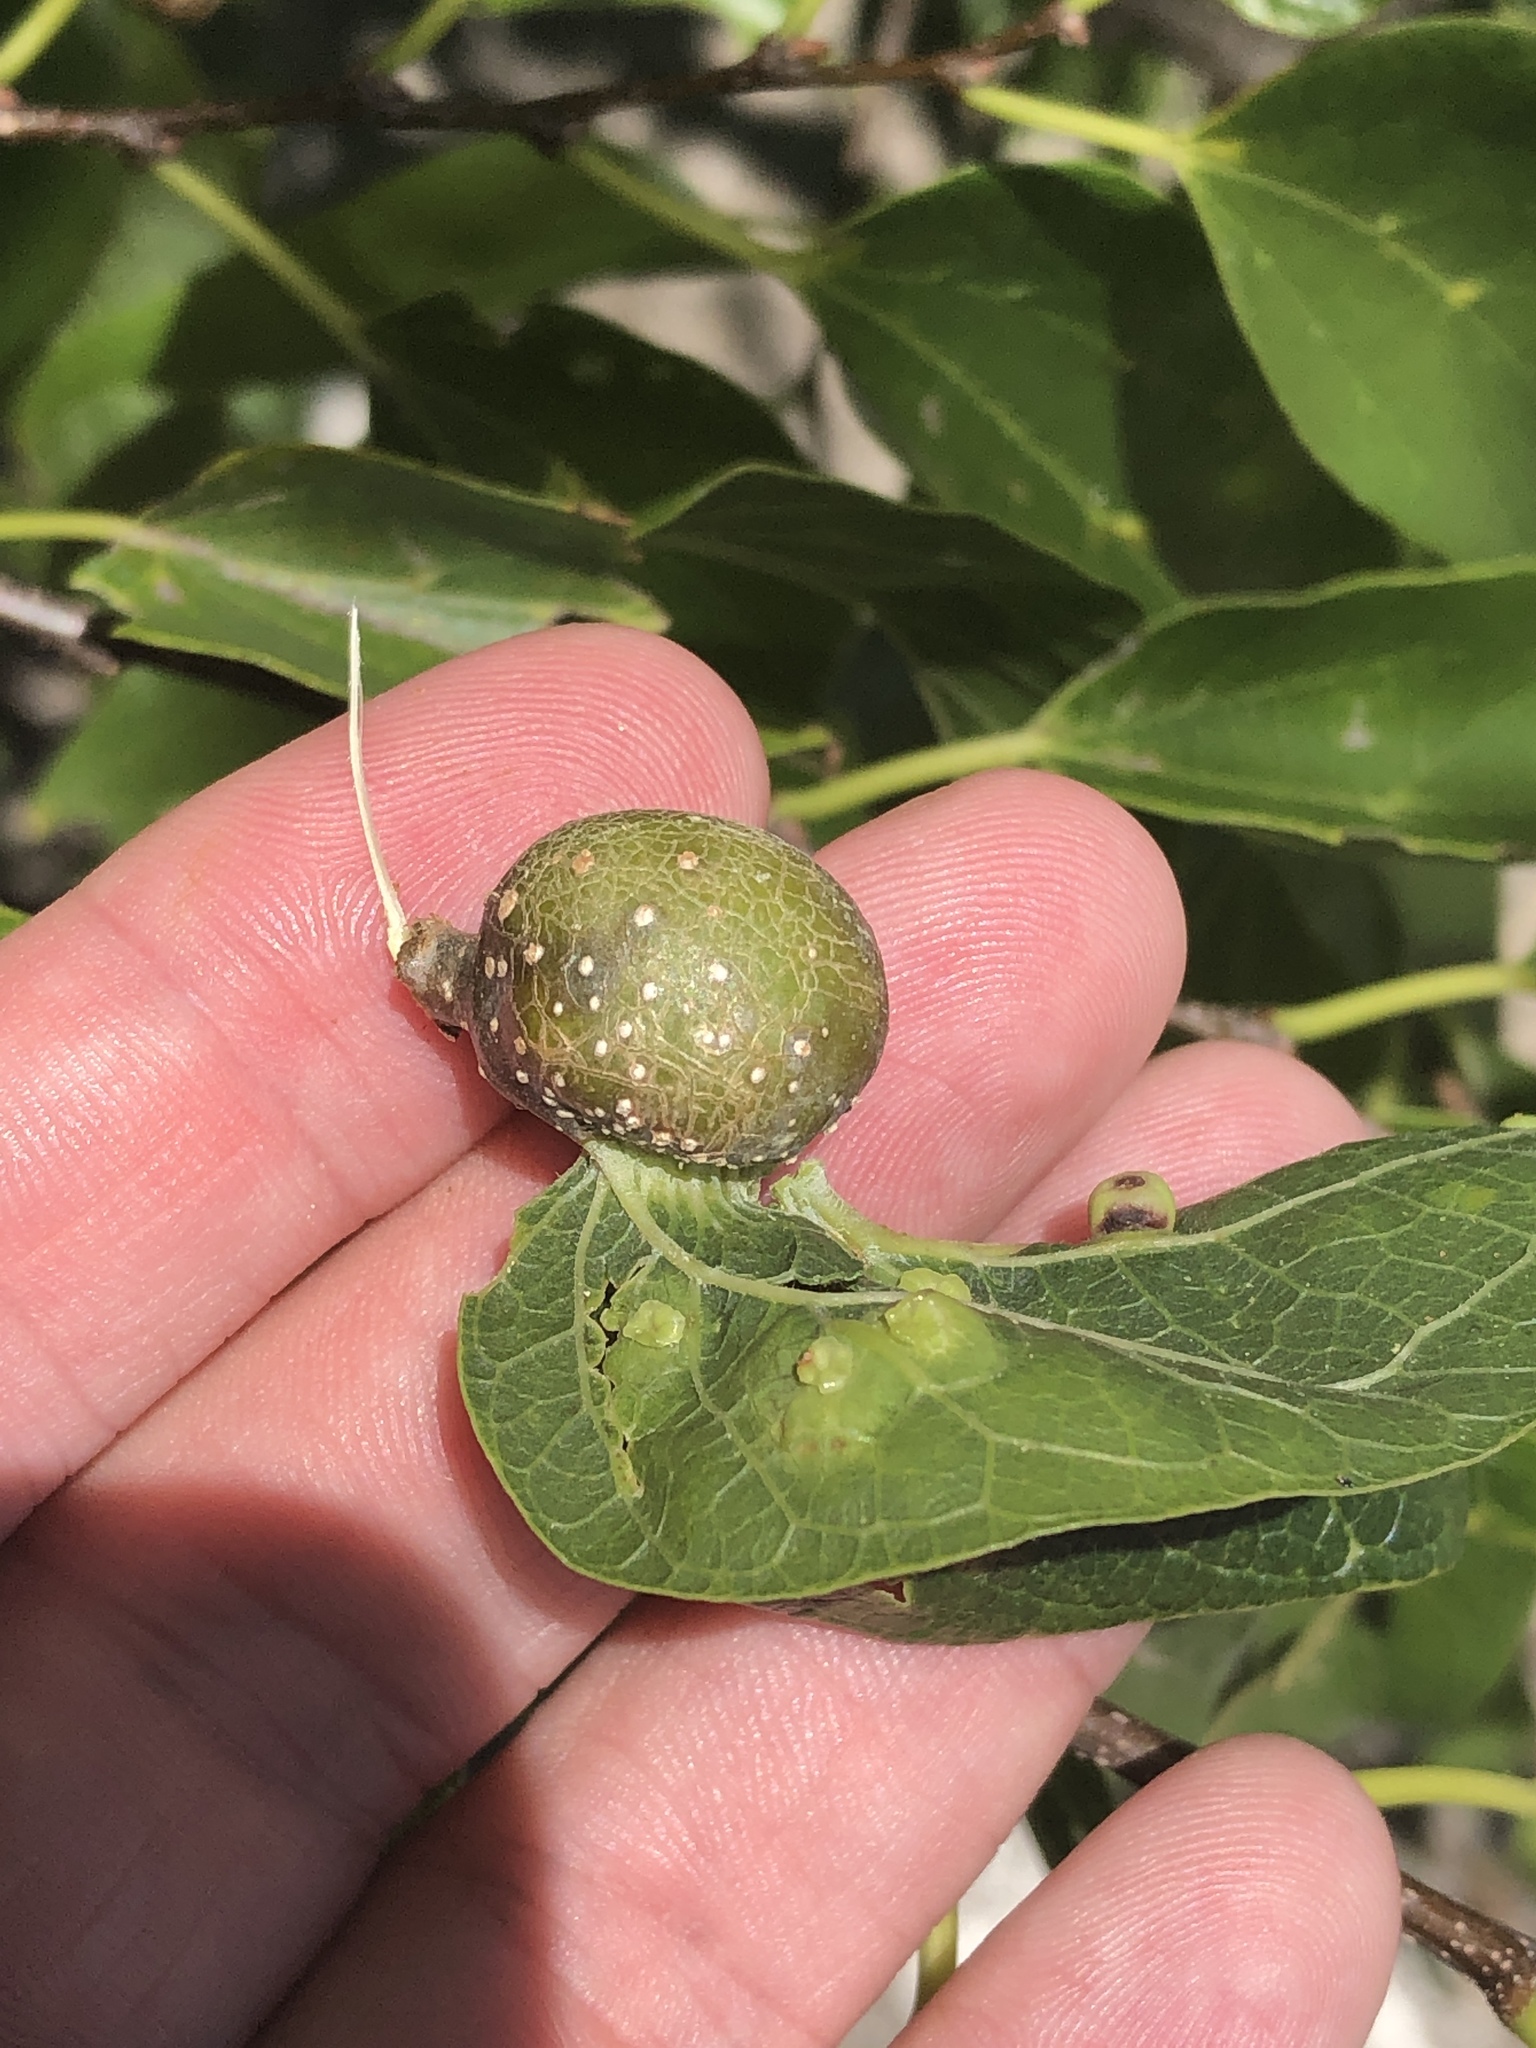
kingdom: Animalia
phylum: Arthropoda
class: Insecta
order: Hemiptera
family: Aphalaridae
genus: Pachypsylla
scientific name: Pachypsylla venusta
